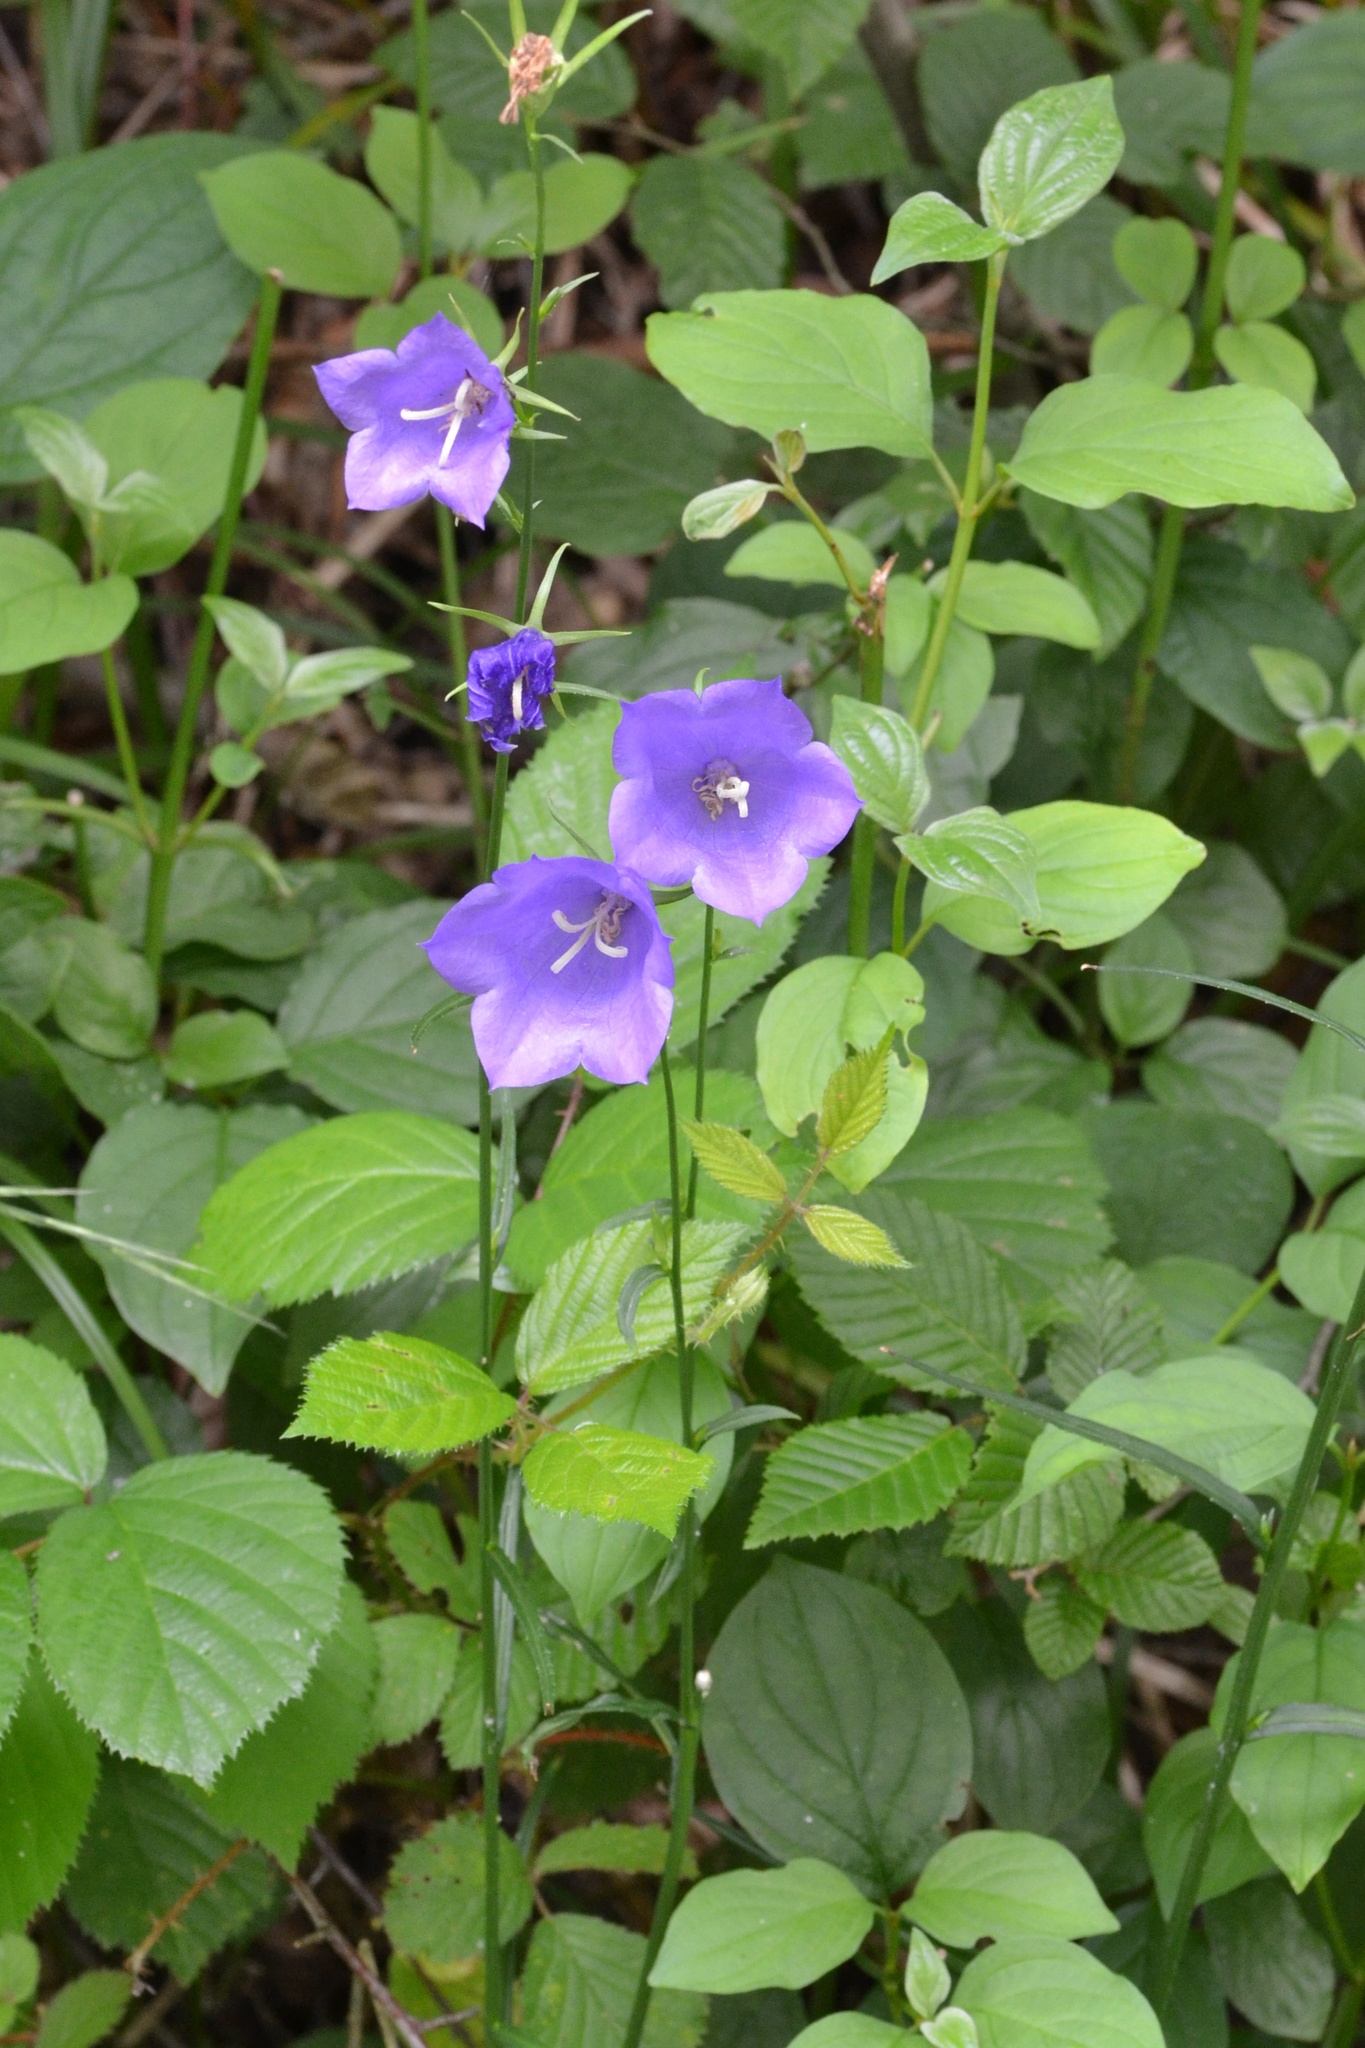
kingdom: Plantae
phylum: Tracheophyta
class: Magnoliopsida
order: Asterales
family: Campanulaceae
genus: Campanula
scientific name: Campanula persicifolia
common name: Peach-leaved bellflower
